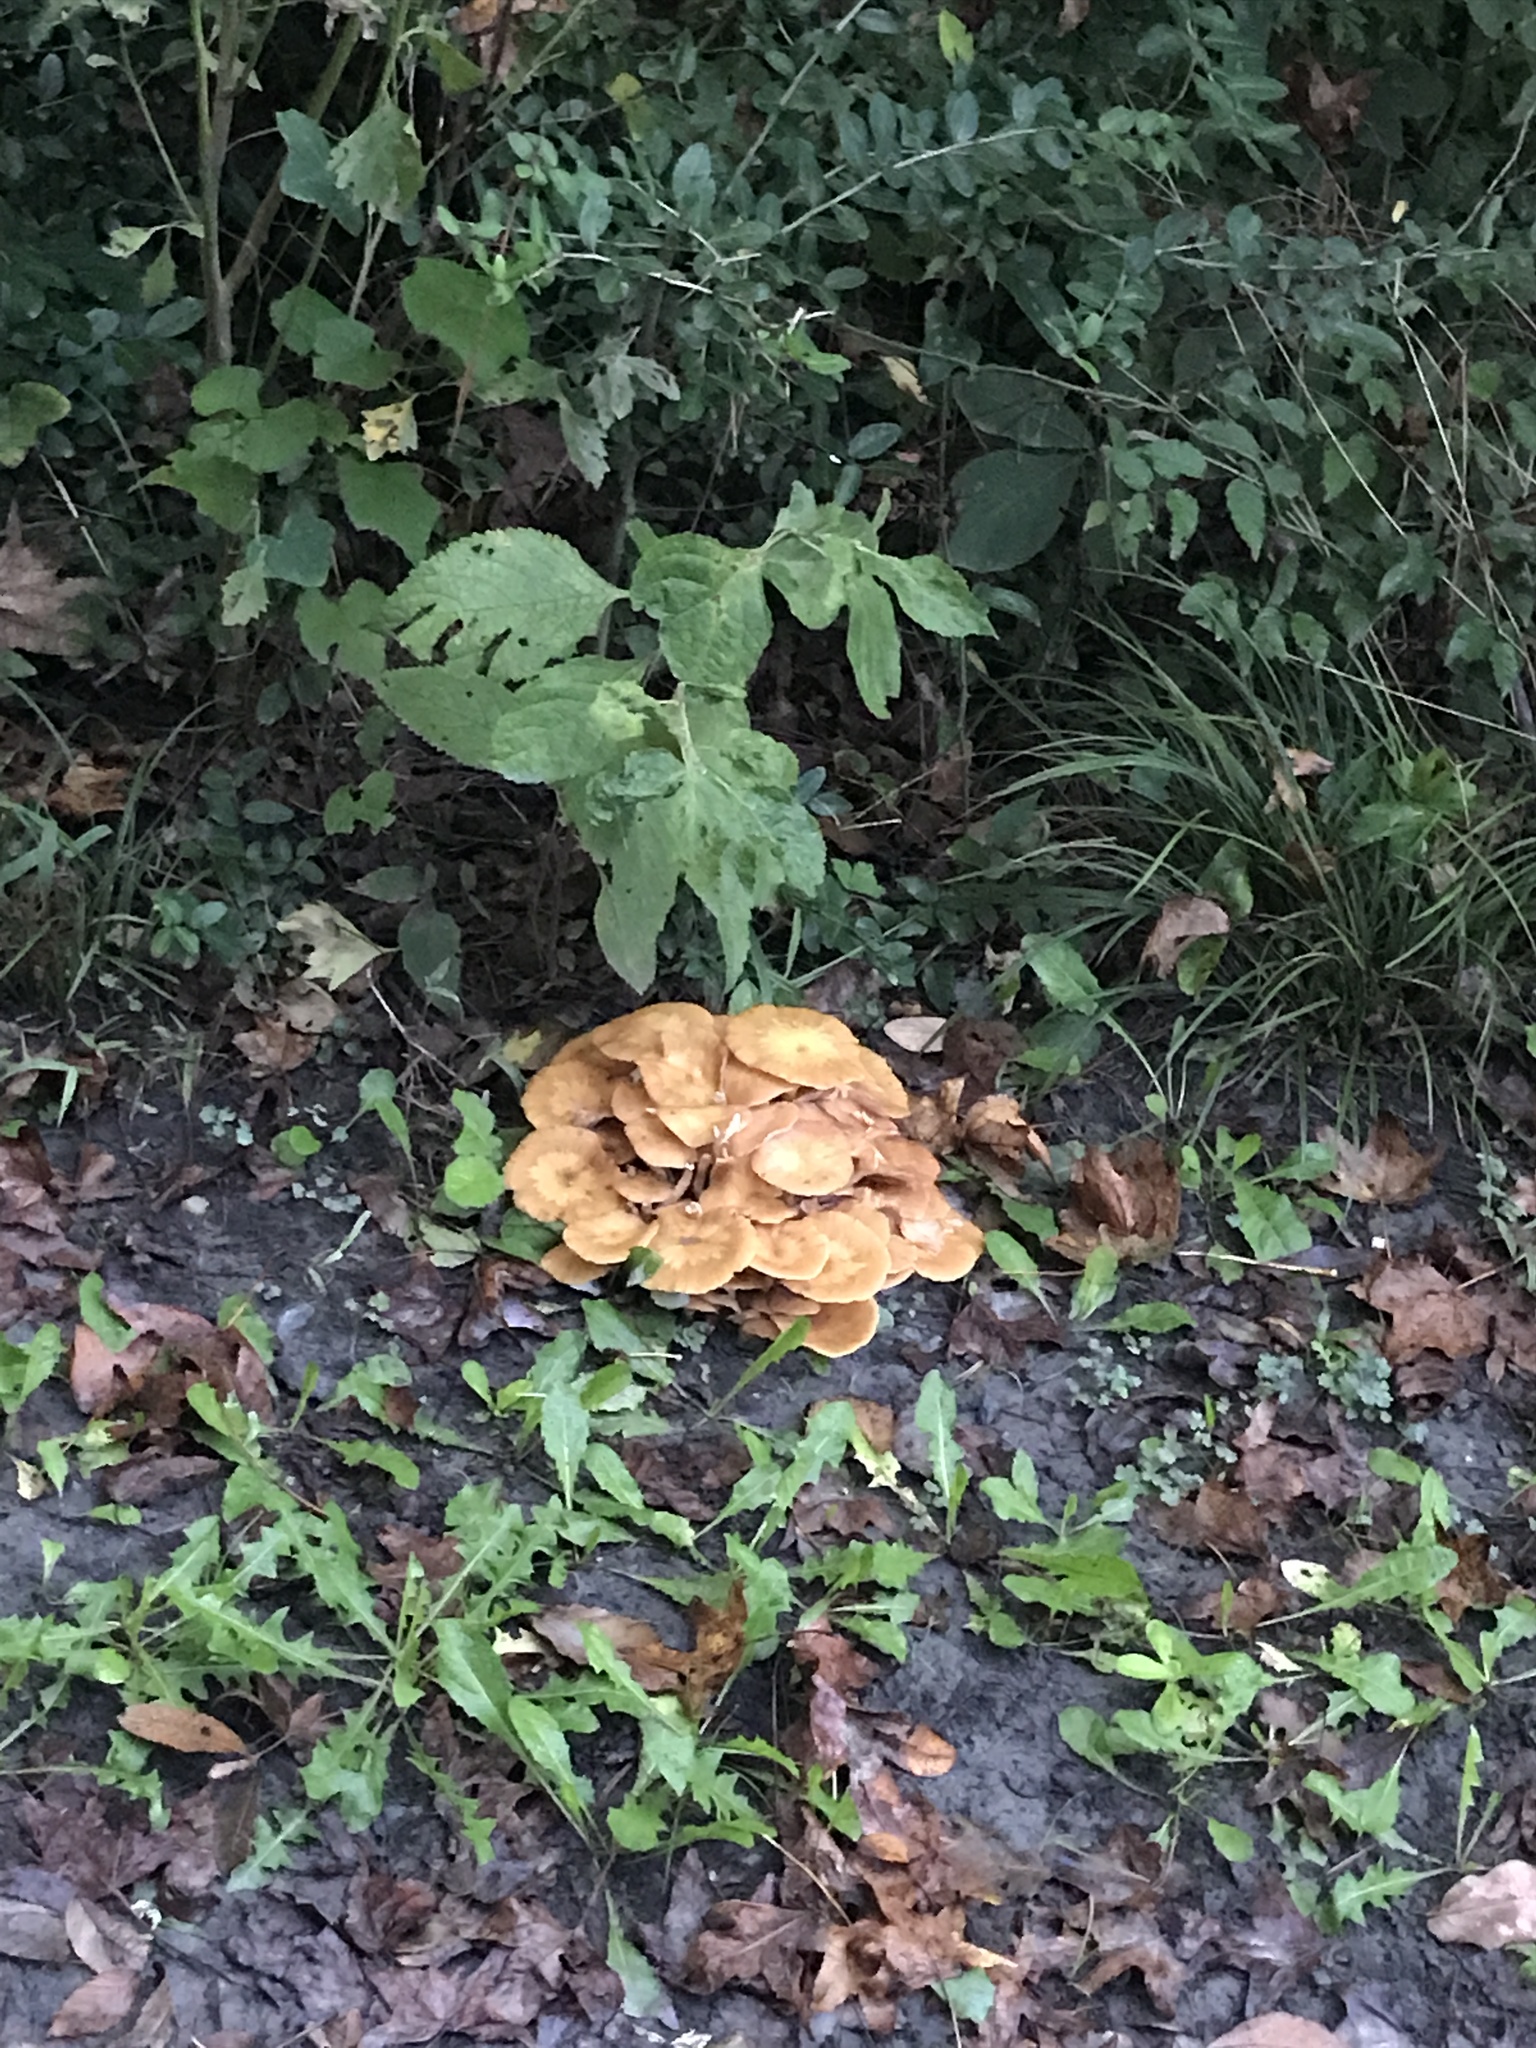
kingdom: Fungi
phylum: Basidiomycota
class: Agaricomycetes
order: Agaricales
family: Physalacriaceae
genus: Desarmillaria
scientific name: Desarmillaria caespitosa
